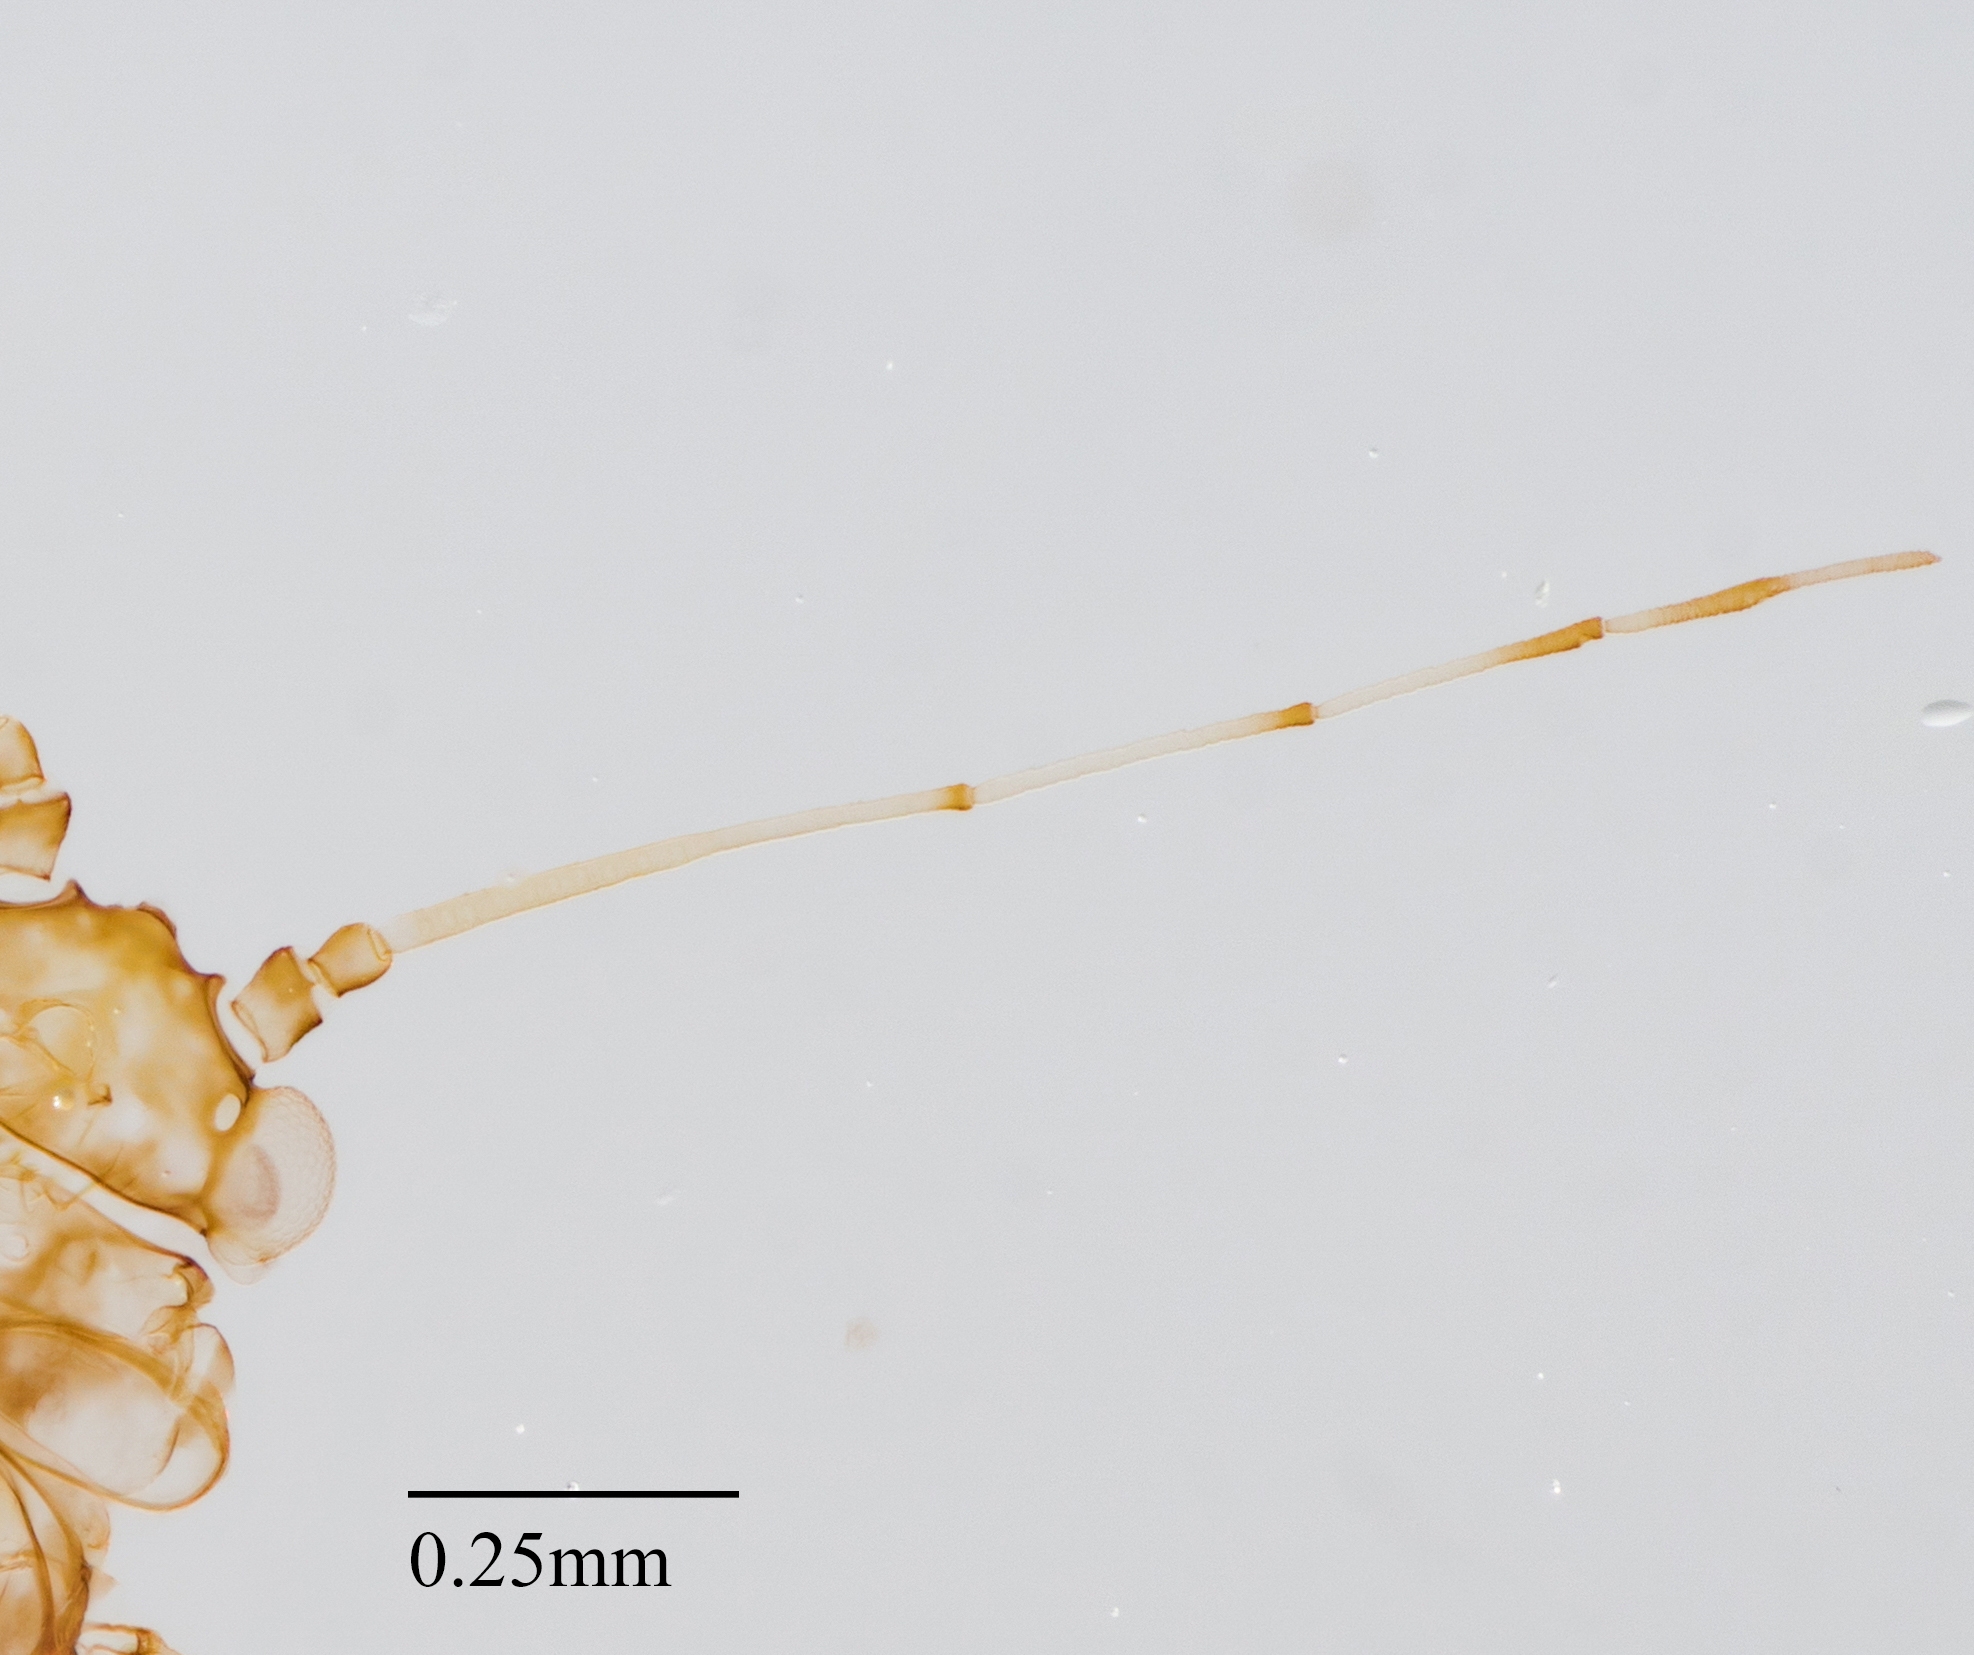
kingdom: Animalia
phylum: Arthropoda
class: Insecta
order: Hemiptera
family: Aphididae
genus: Tinocallis
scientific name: Tinocallis saltans
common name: Aphid
